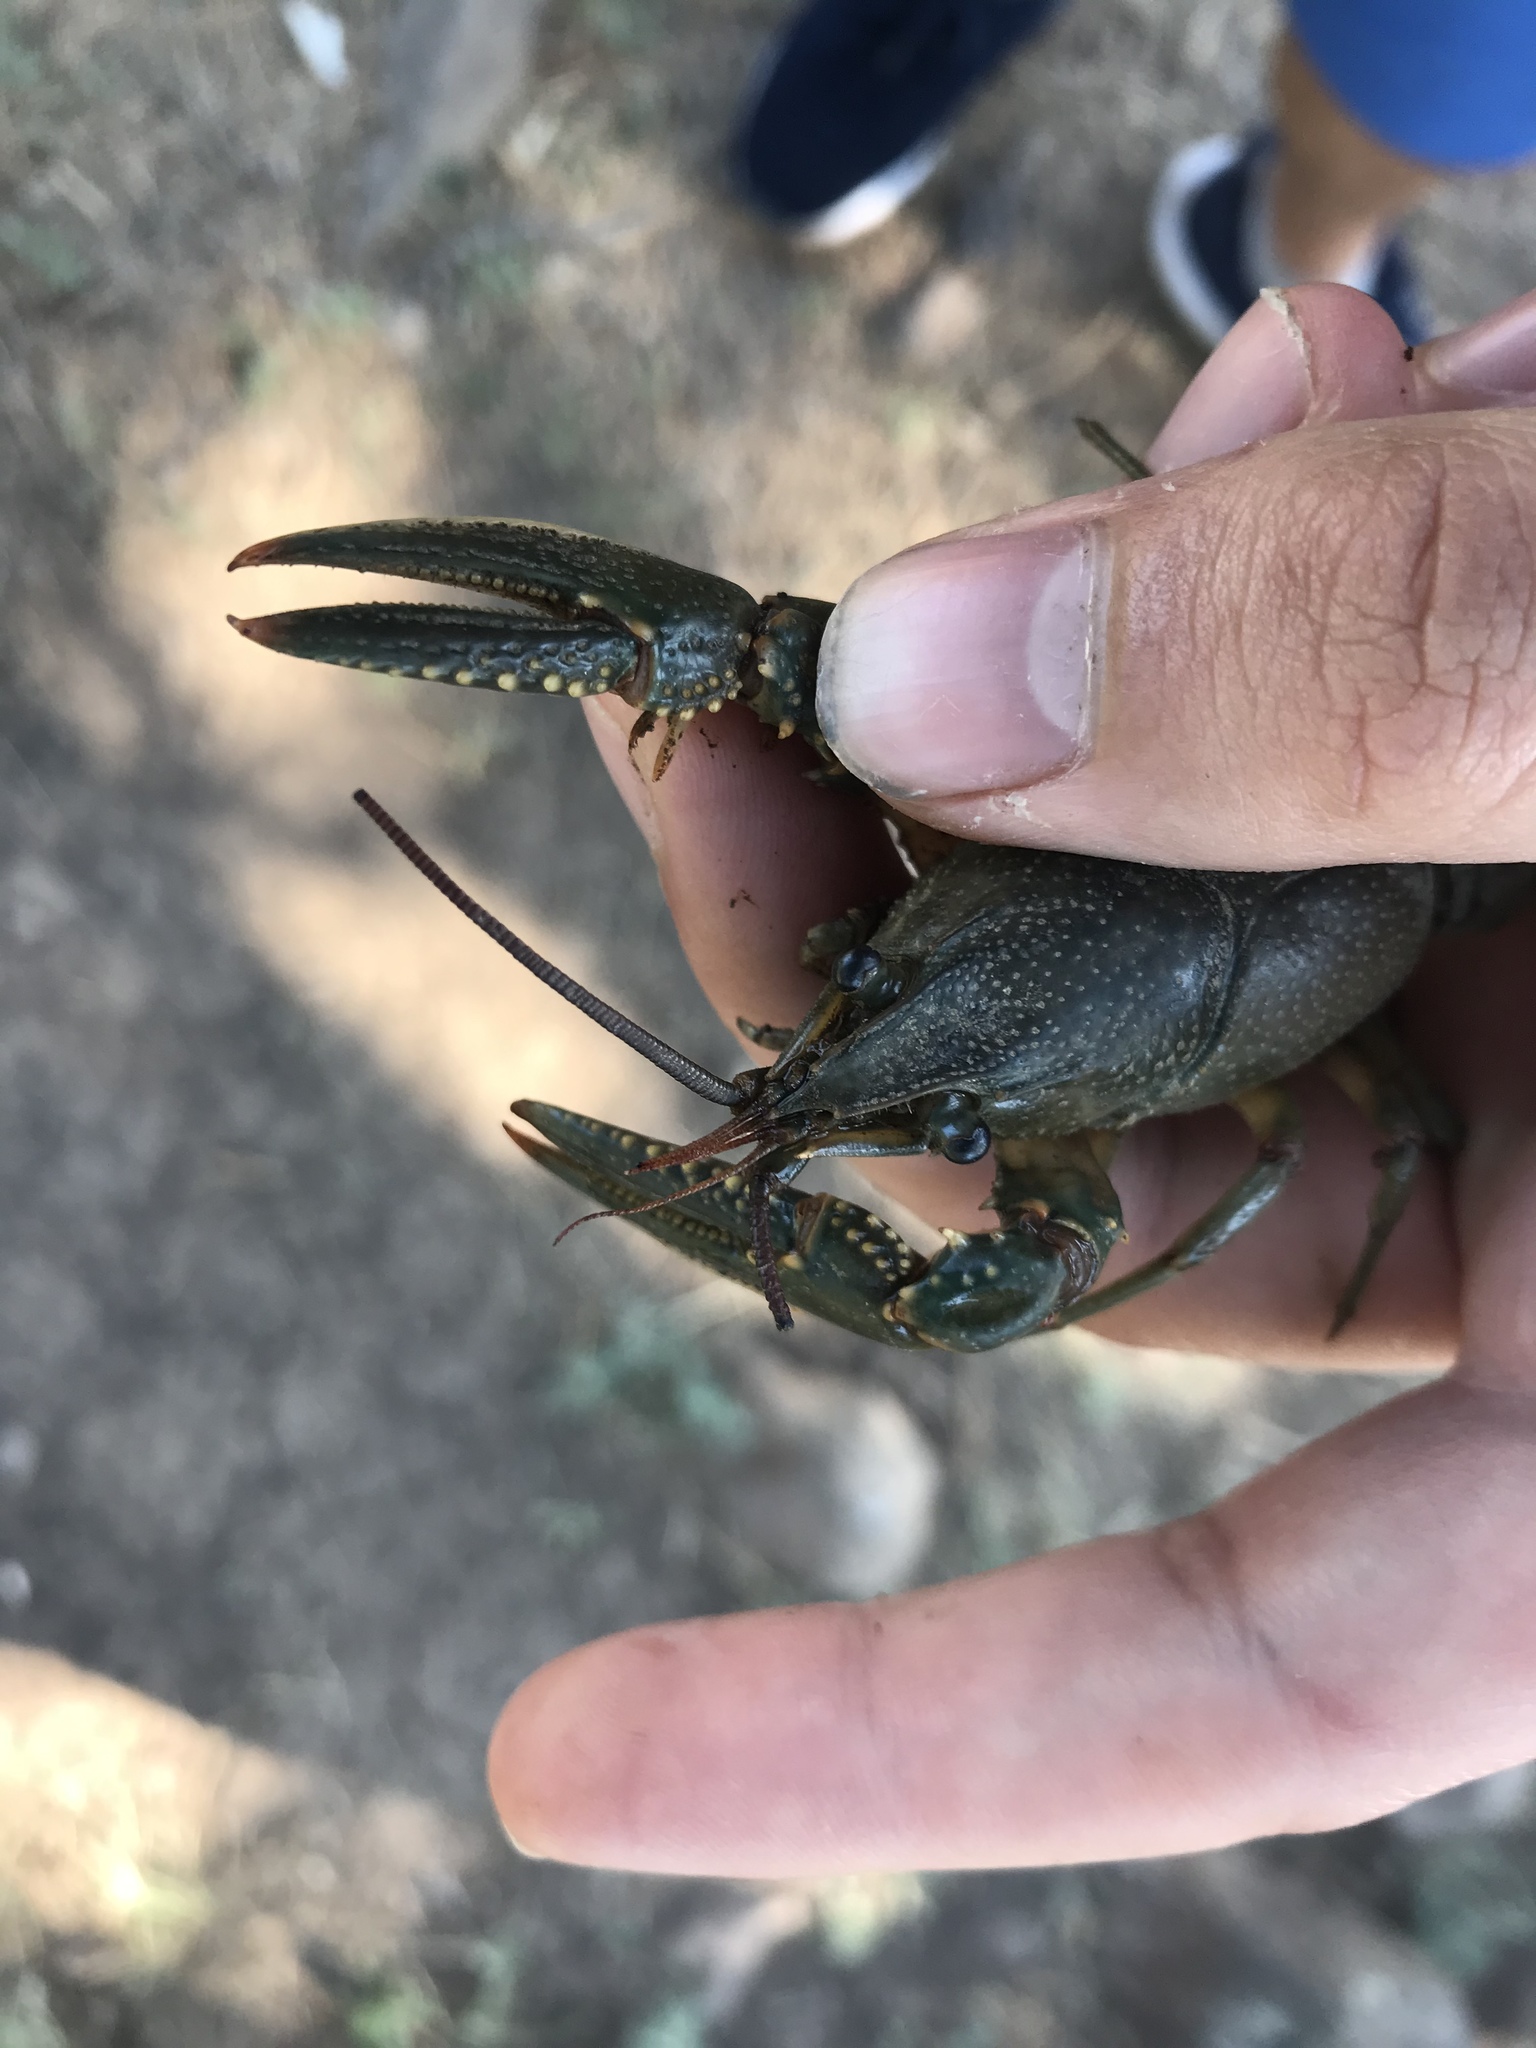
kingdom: Animalia
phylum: Arthropoda
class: Malacostraca
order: Decapoda
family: Cambaridae
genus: Faxonius
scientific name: Faxonius virilis
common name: Virile crayfish
